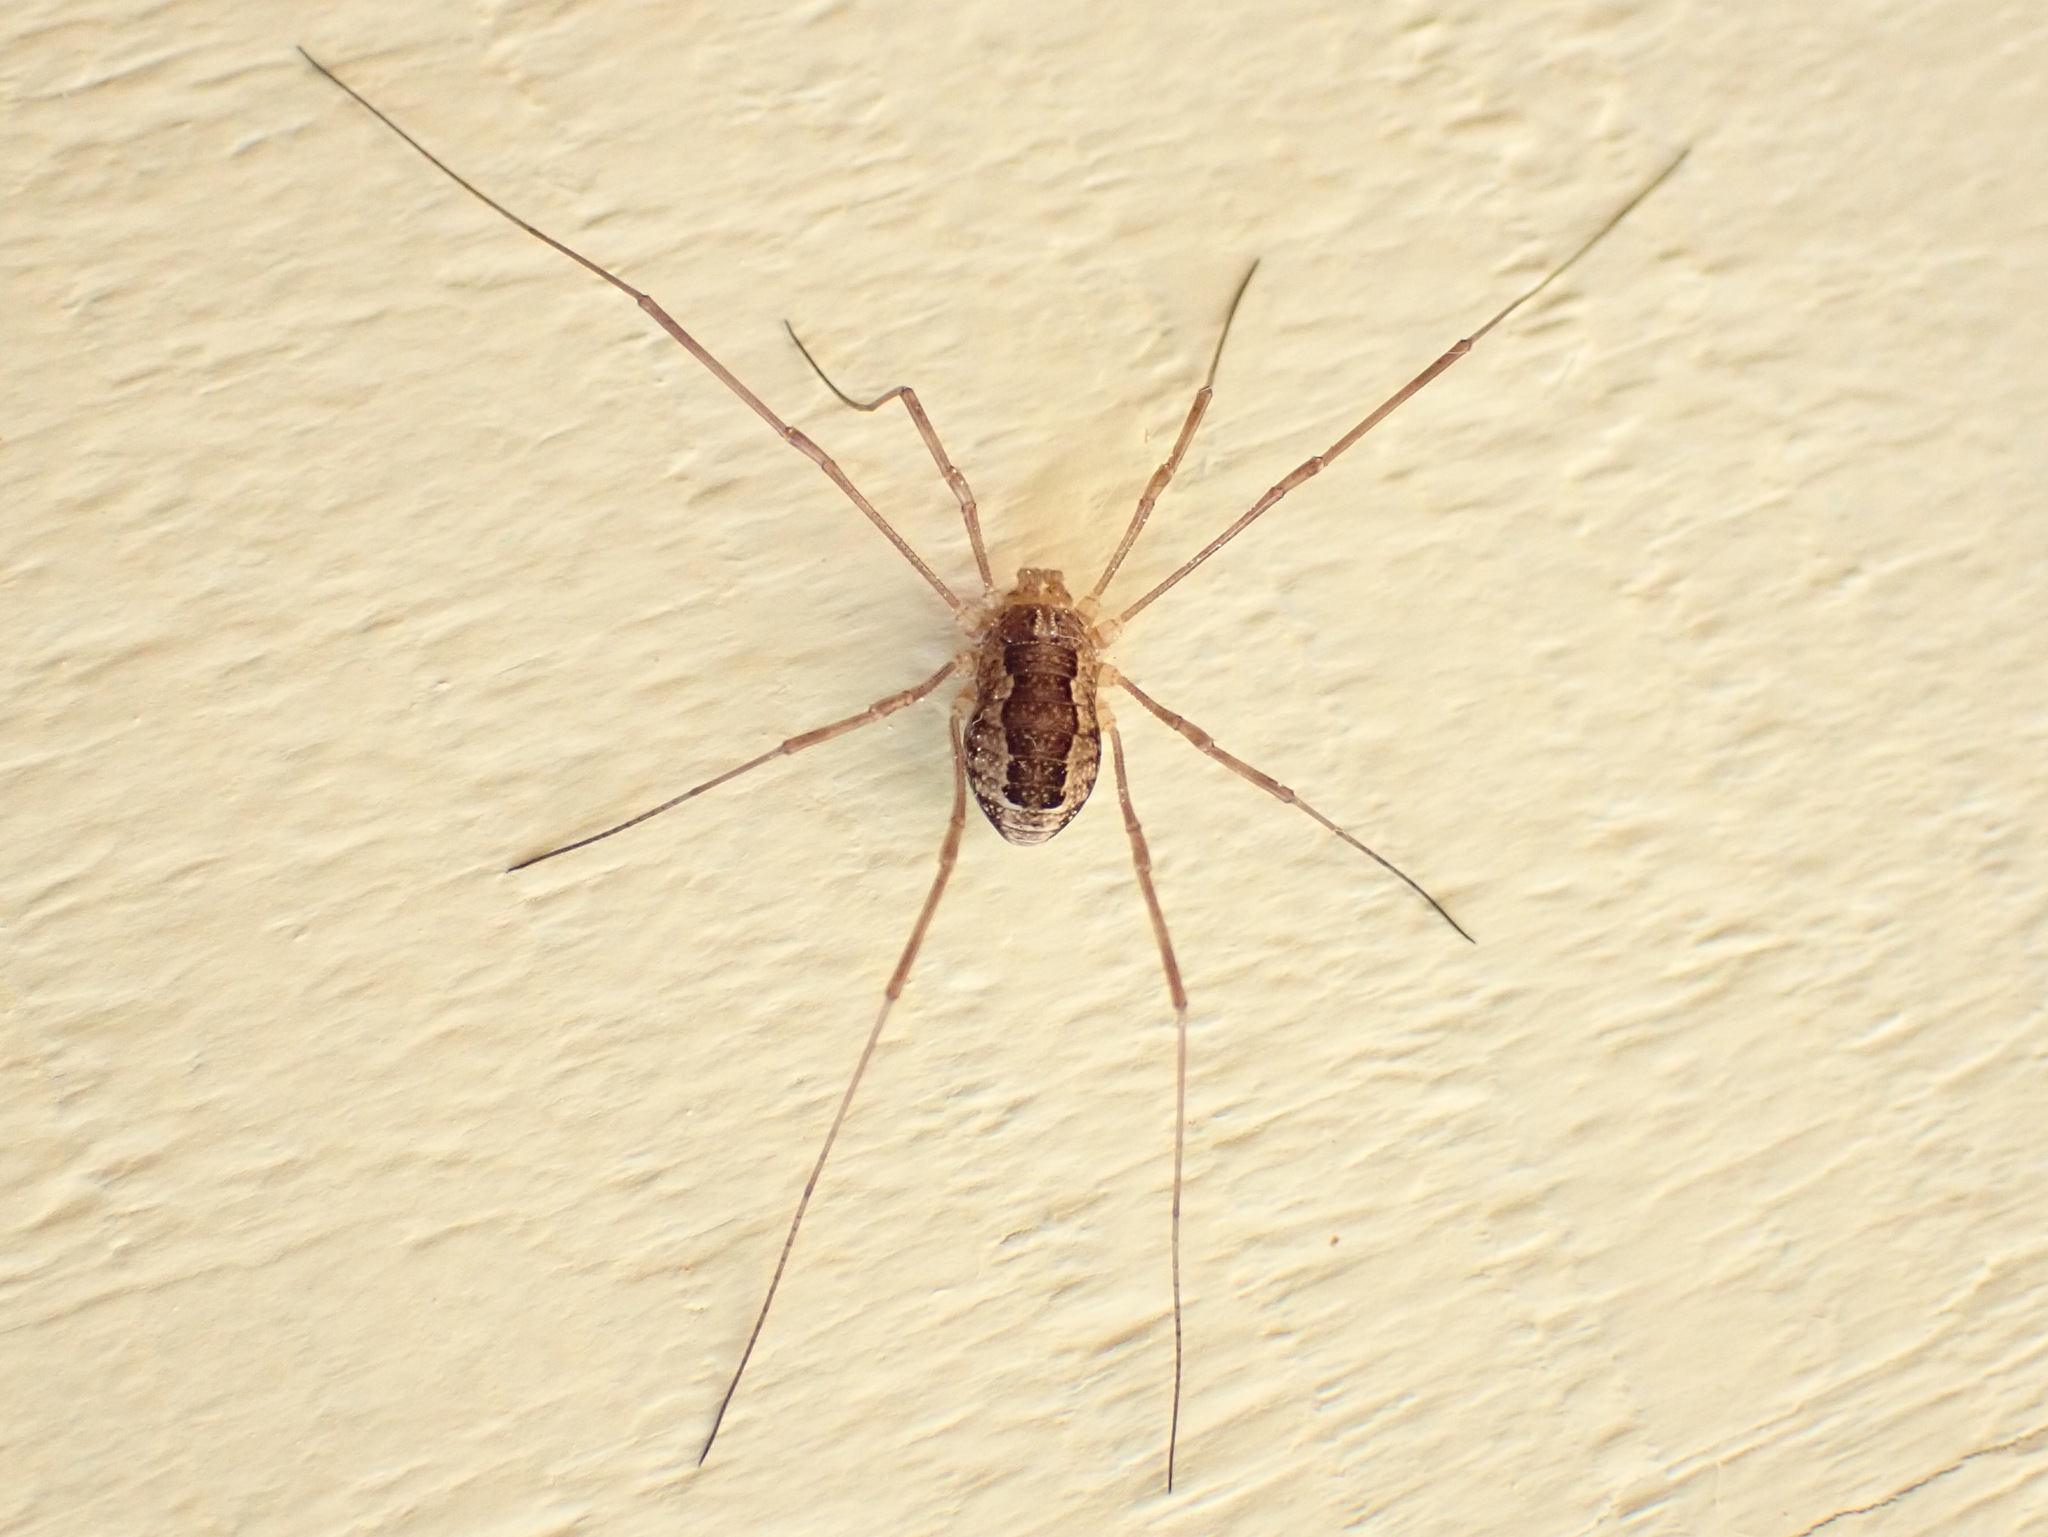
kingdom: Animalia
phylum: Arthropoda
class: Arachnida
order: Opiliones
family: Phalangiidae
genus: Rilaena
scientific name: Rilaena triangularis
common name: Spring harvestman
